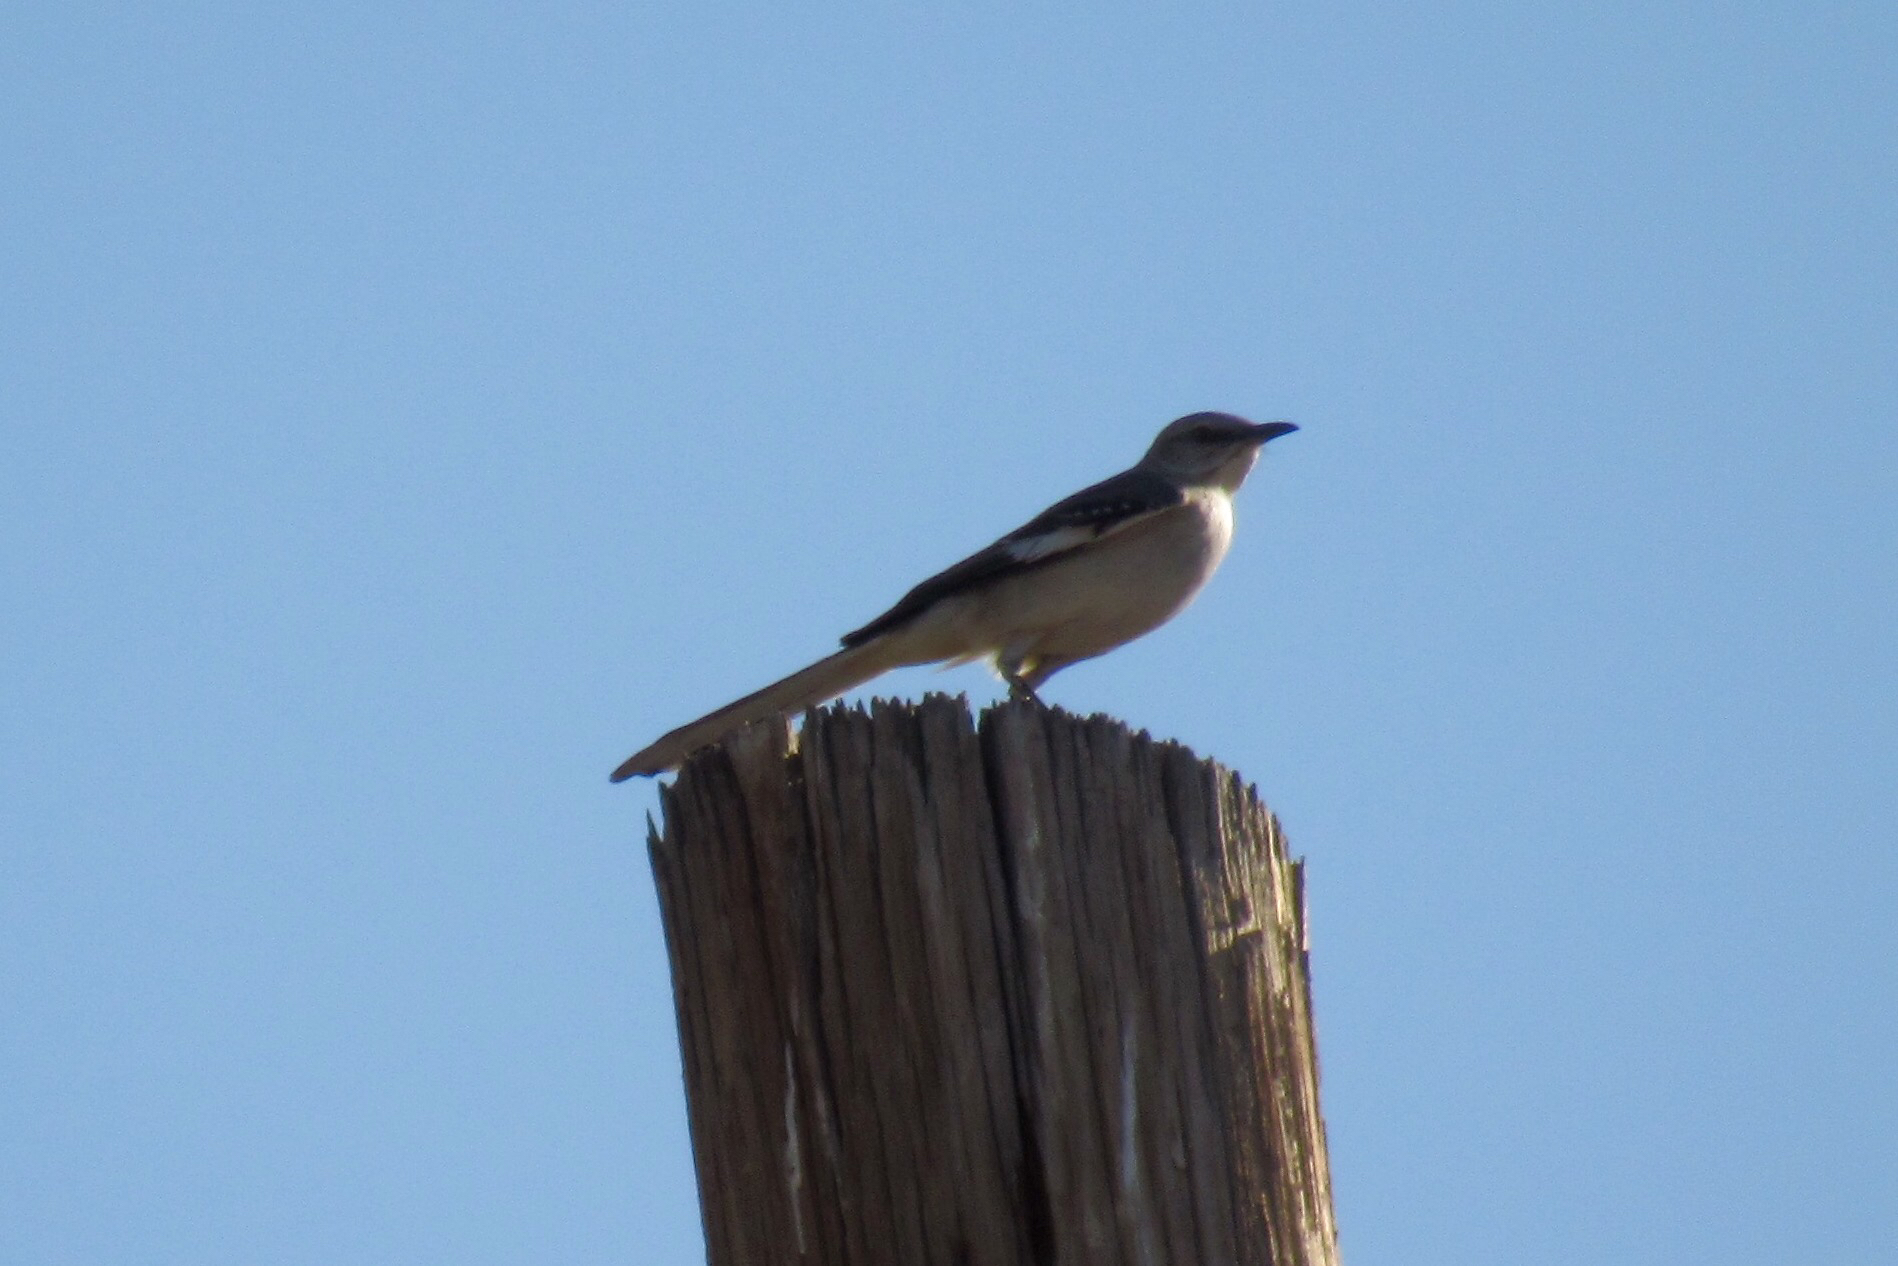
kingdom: Animalia
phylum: Chordata
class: Aves
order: Passeriformes
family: Mimidae
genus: Mimus
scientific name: Mimus polyglottos
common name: Northern mockingbird
